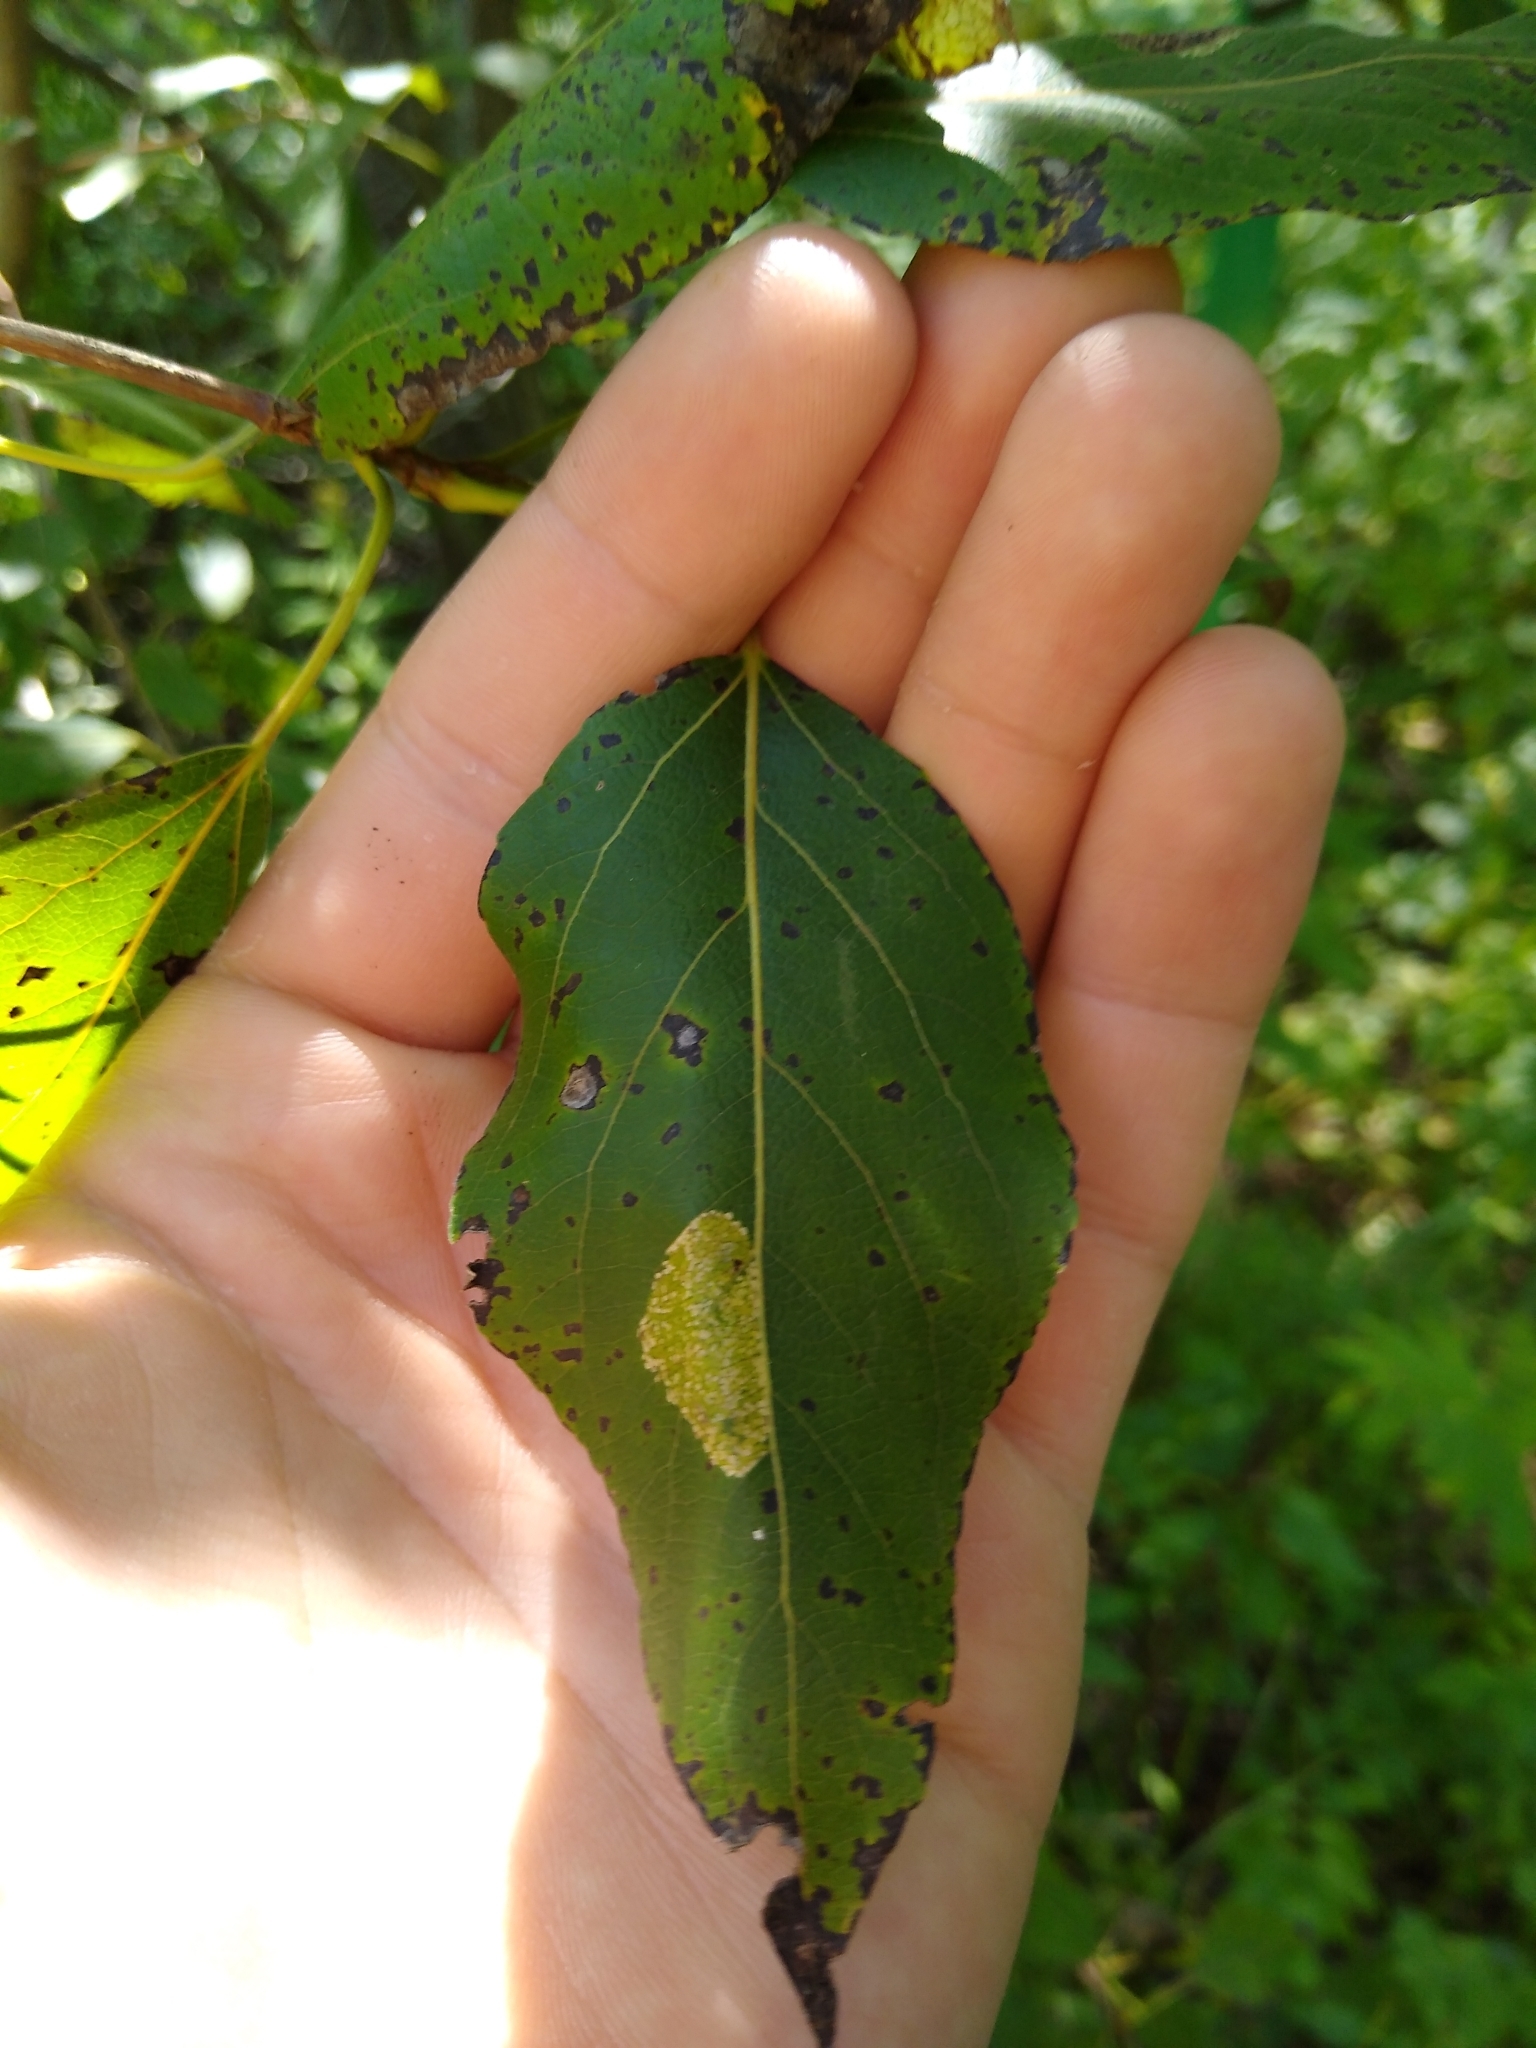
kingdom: Plantae
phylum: Tracheophyta
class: Magnoliopsida
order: Malpighiales
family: Salicaceae
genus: Populus
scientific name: Populus balsamifera
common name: Balsam poplar
